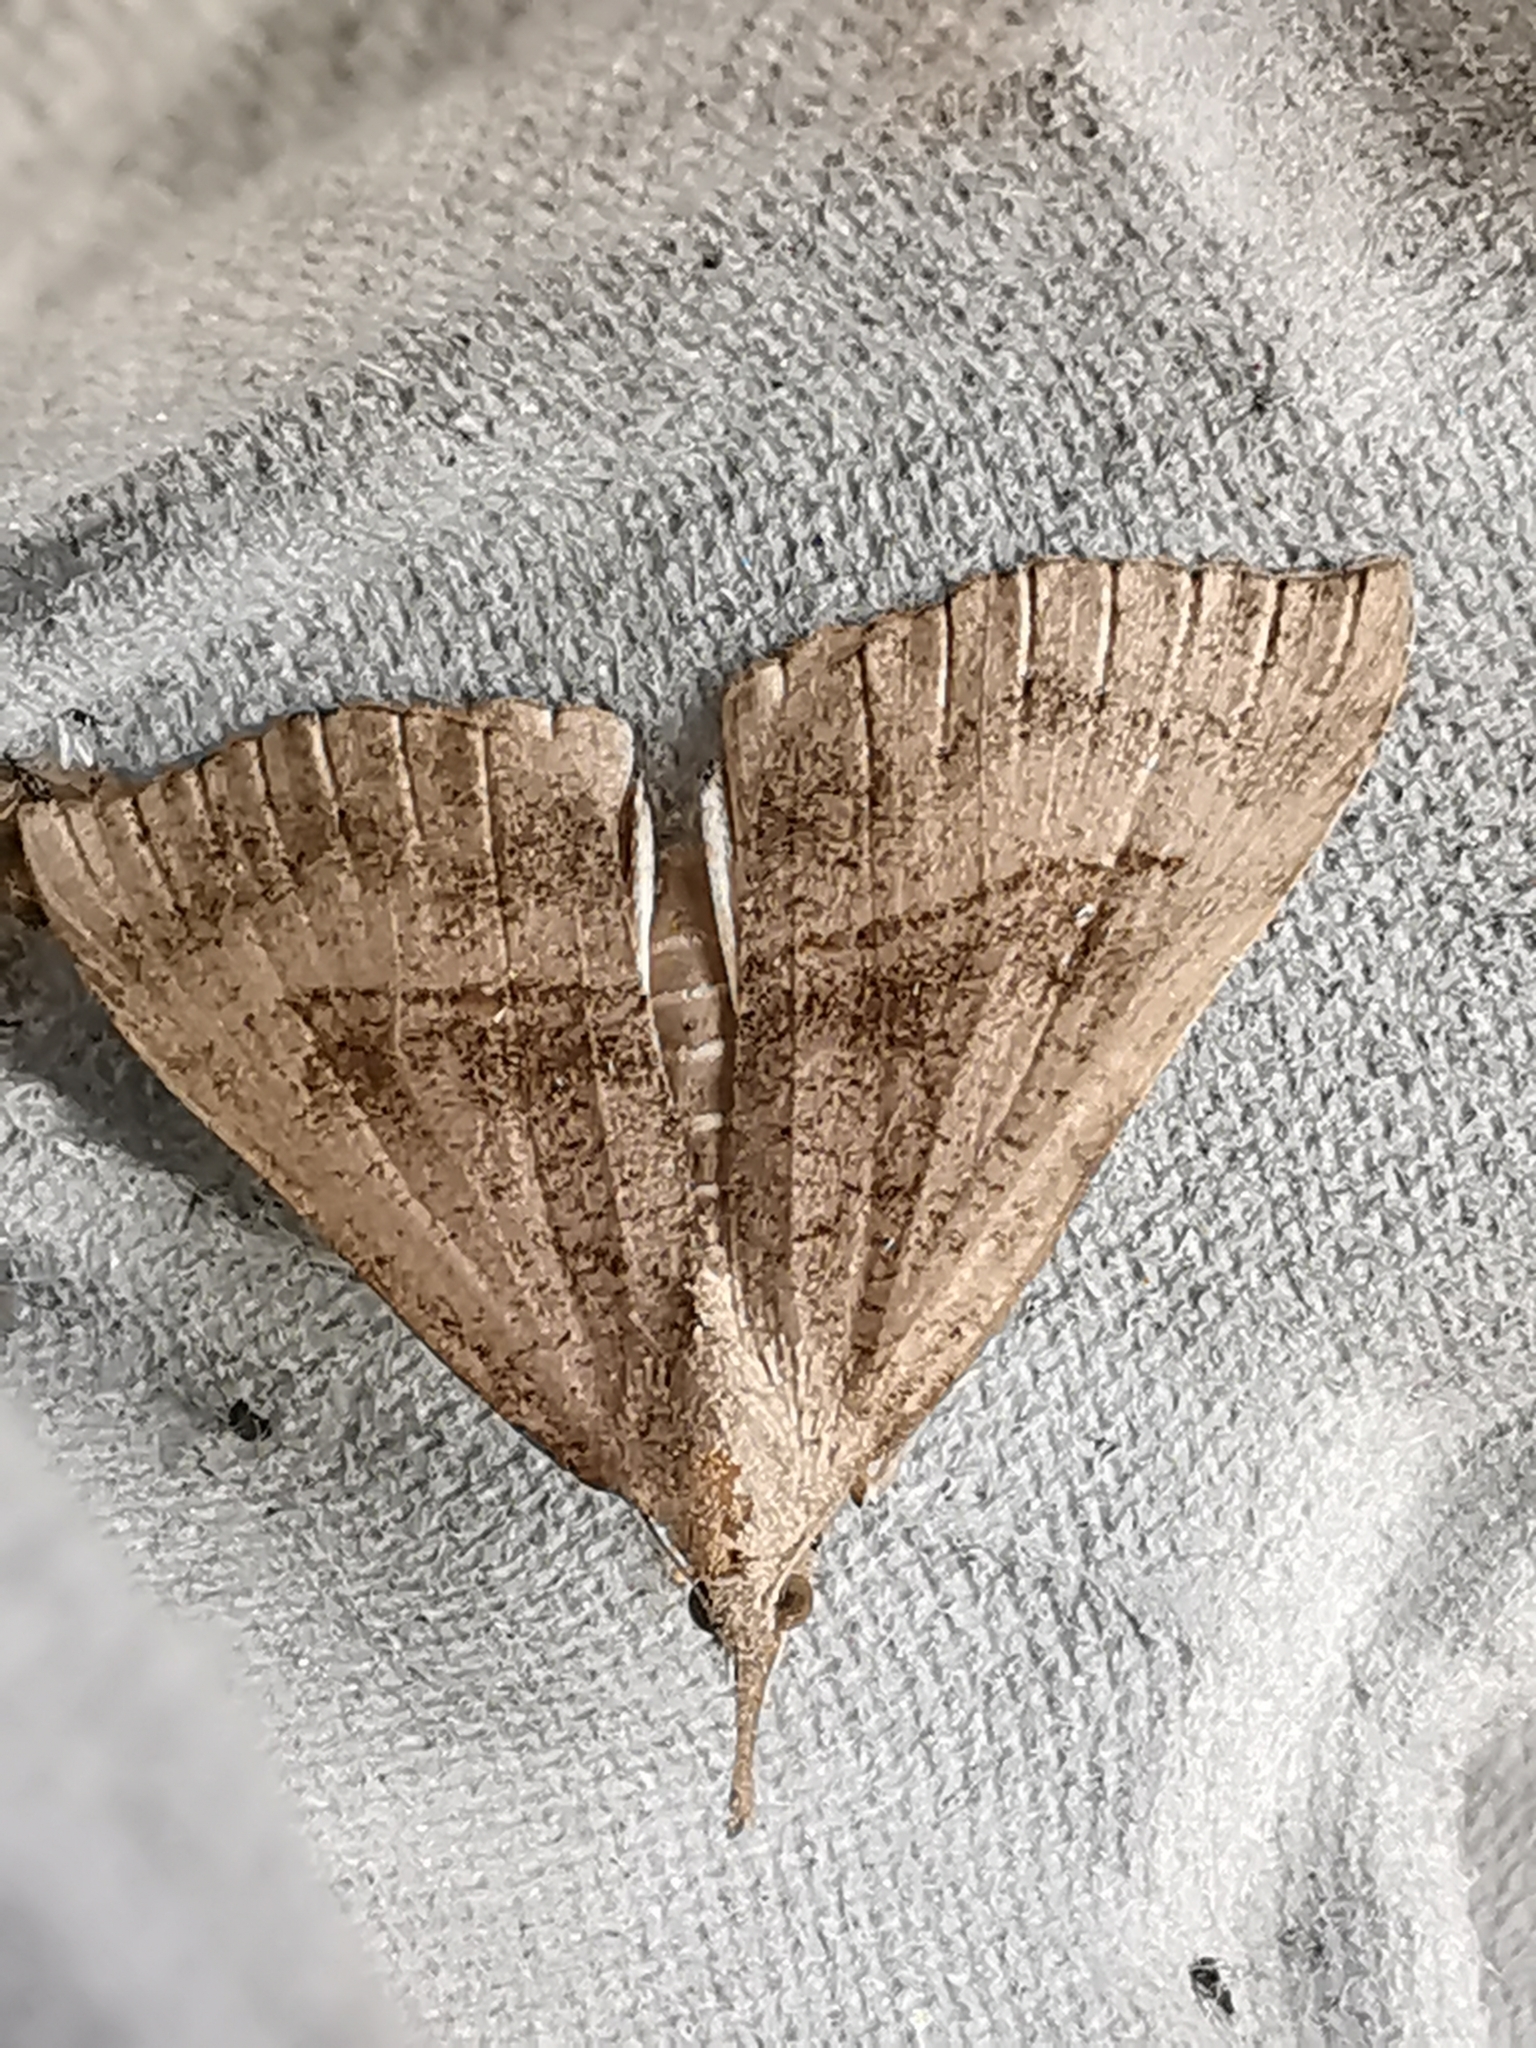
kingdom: Animalia
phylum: Arthropoda
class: Insecta
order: Lepidoptera
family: Erebidae
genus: Hypena
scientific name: Hypena proboscidalis
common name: Snout
